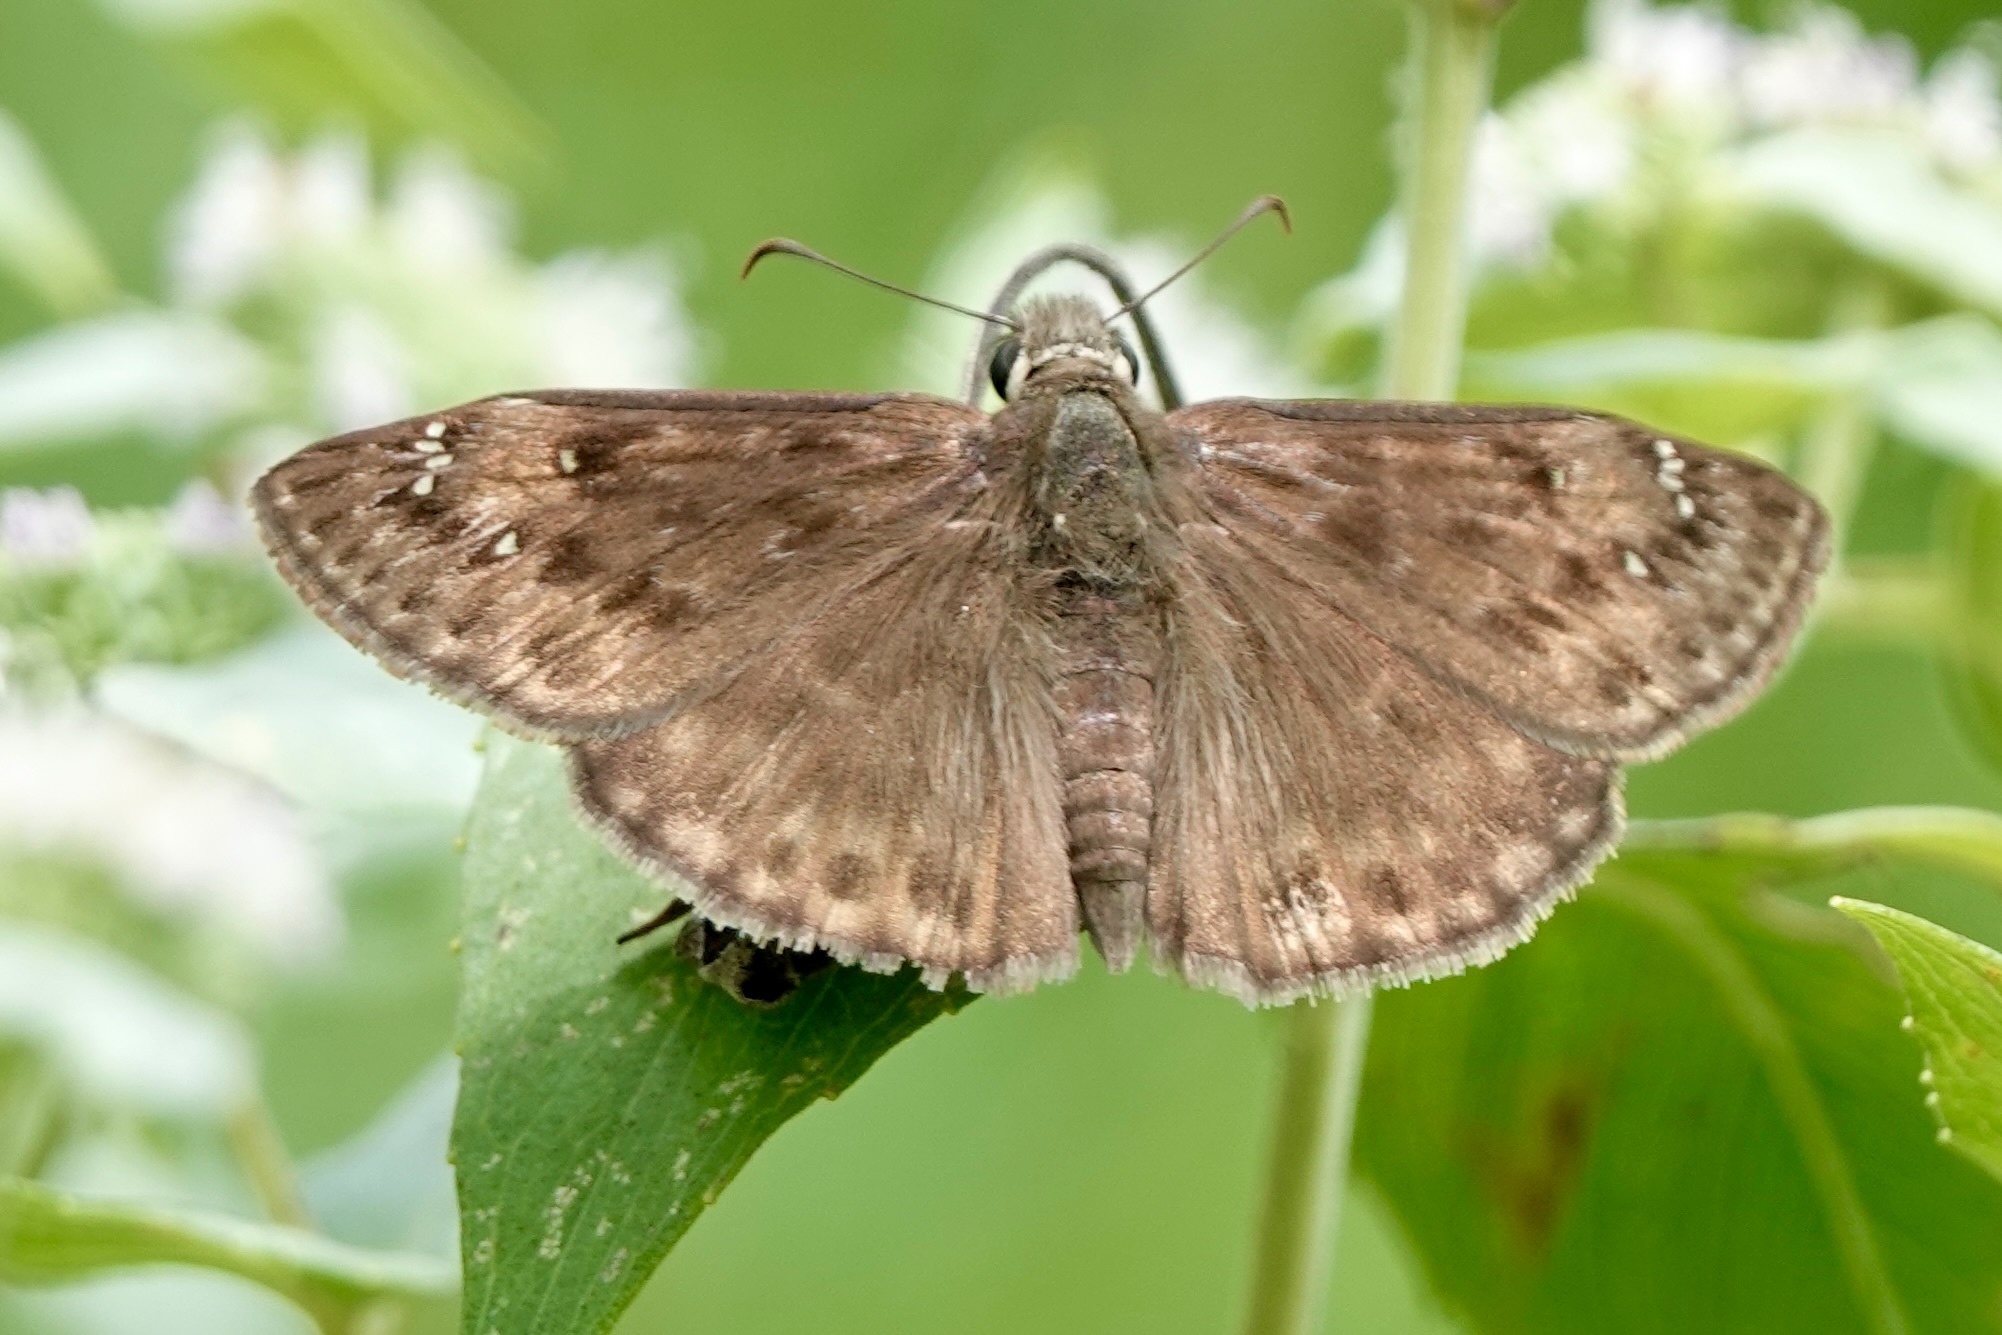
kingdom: Animalia
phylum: Arthropoda
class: Insecta
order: Lepidoptera
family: Hesperiidae
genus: Erynnis
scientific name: Erynnis horatius
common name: Horace's duskywing
